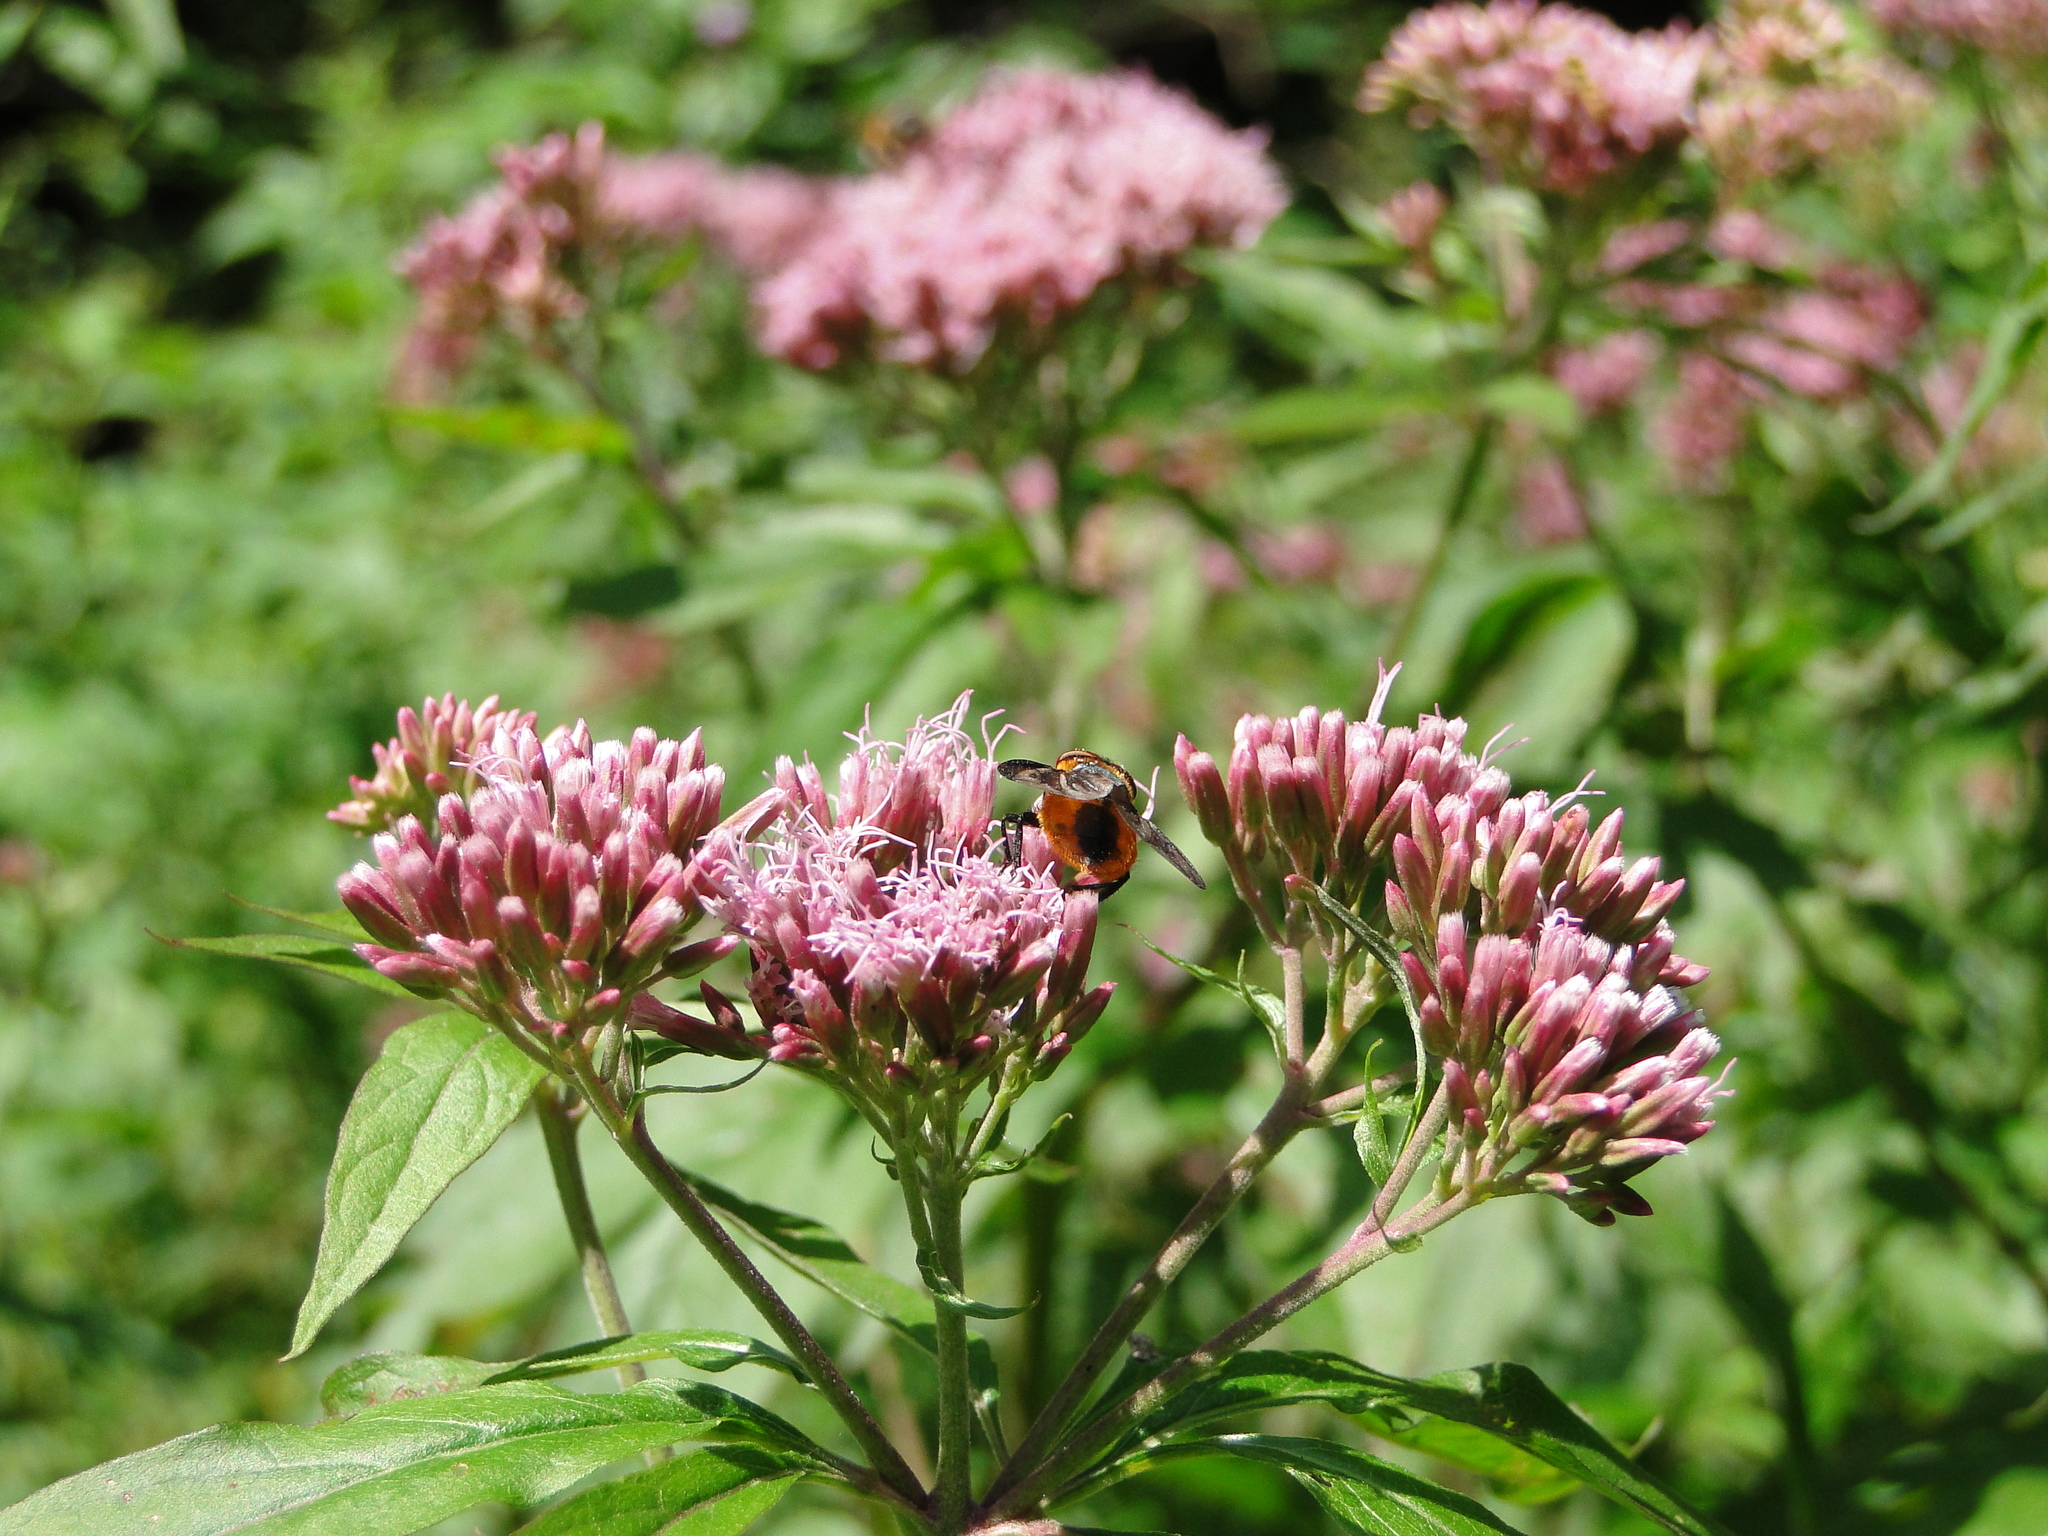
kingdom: Animalia
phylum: Arthropoda
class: Insecta
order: Diptera
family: Tachinidae
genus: Phasia
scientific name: Phasia hemiptera
